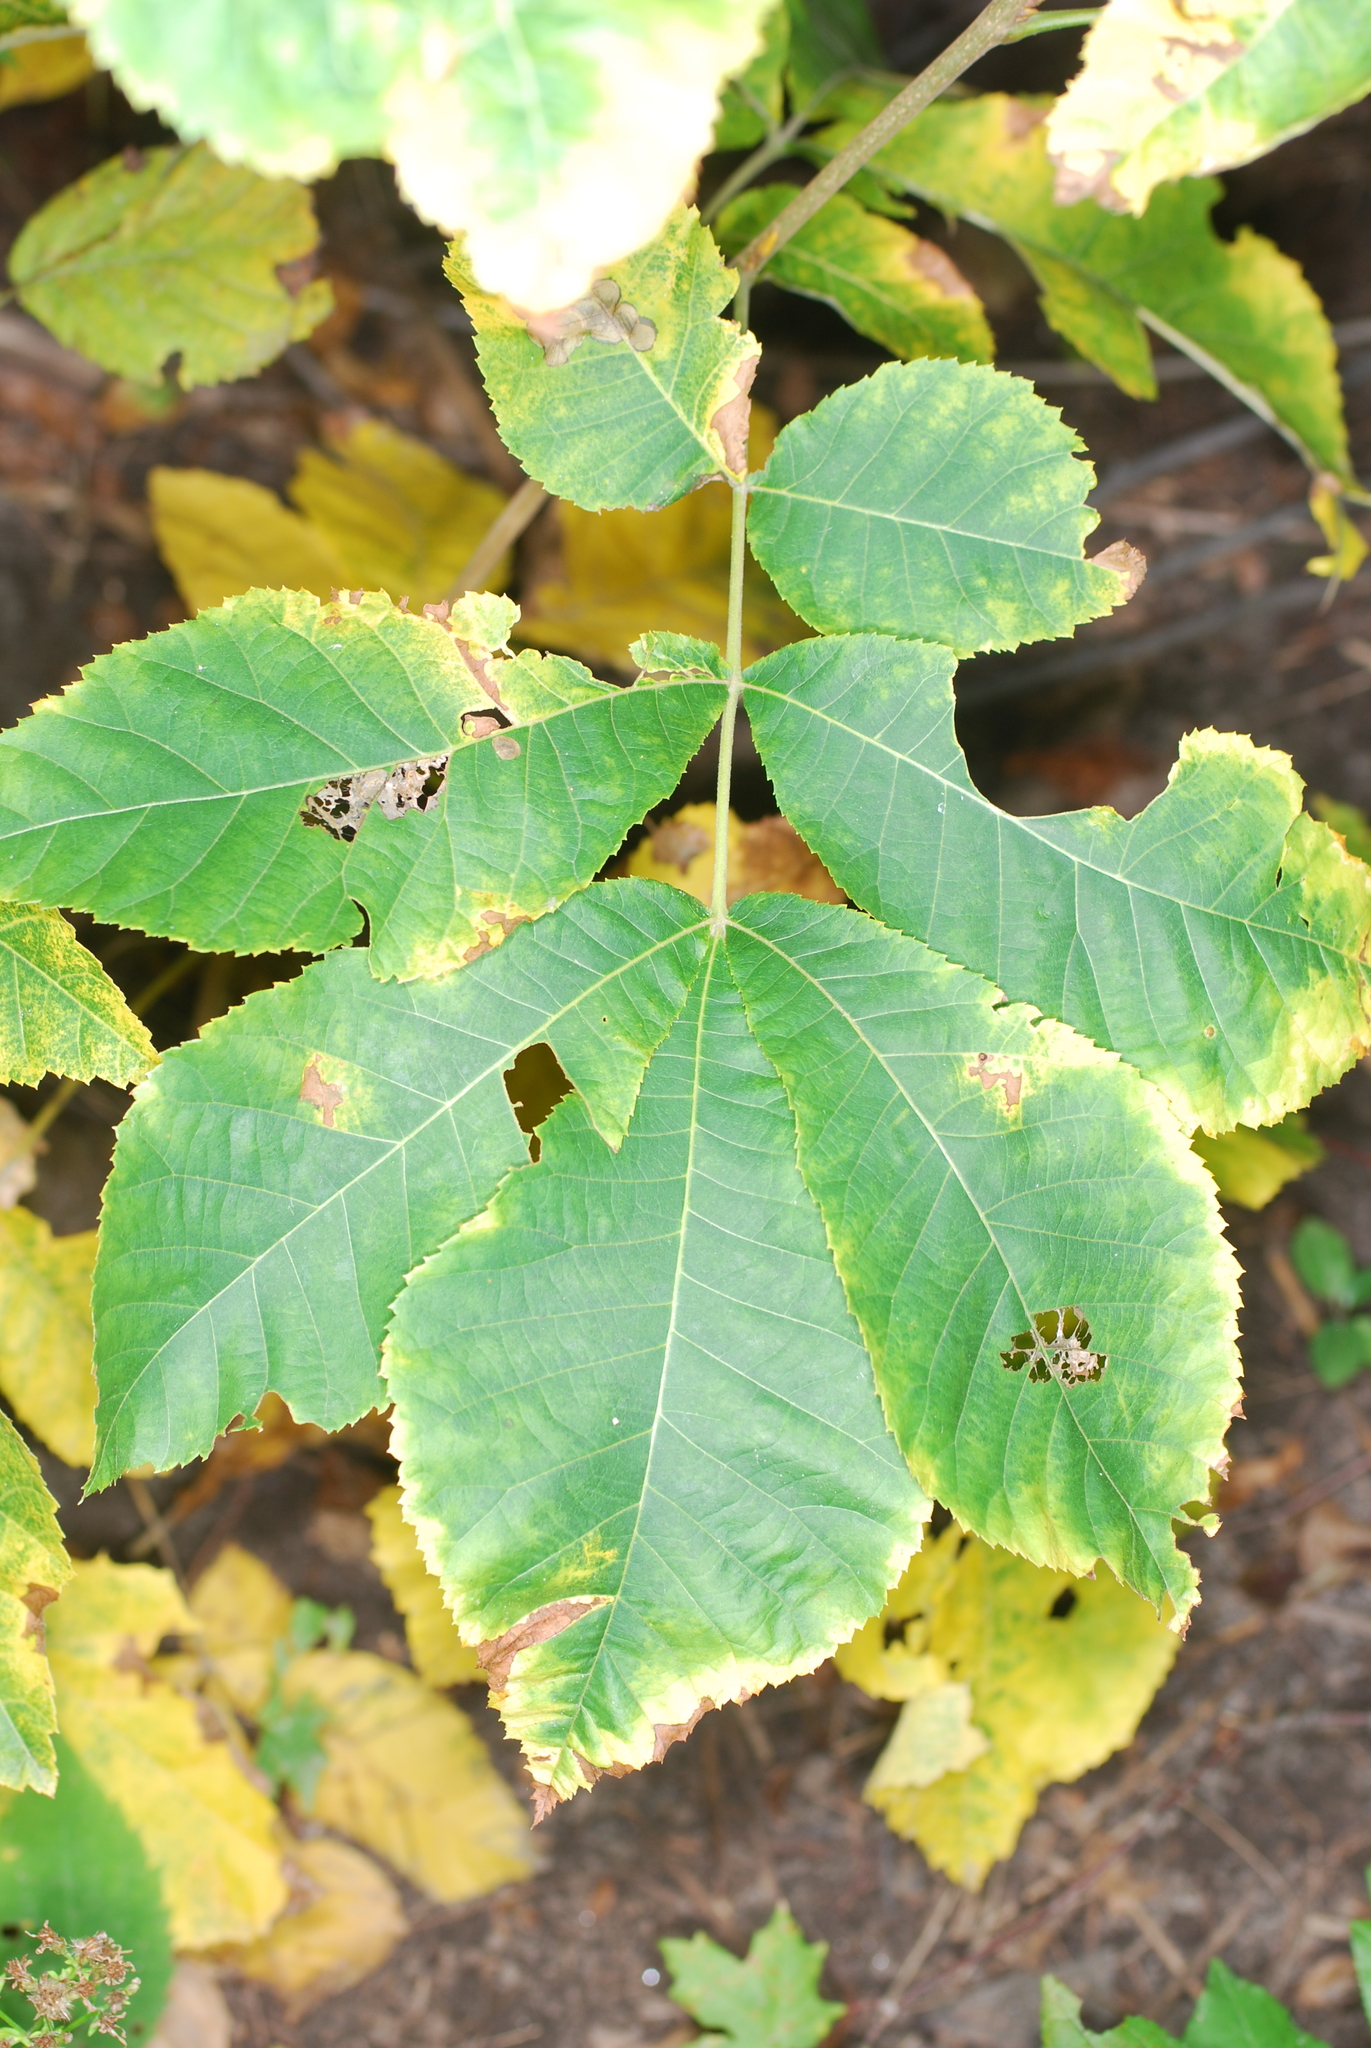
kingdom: Plantae
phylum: Tracheophyta
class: Magnoliopsida
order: Fagales
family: Juglandaceae
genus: Carya
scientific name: Carya cordiformis
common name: Bitternut hickory
